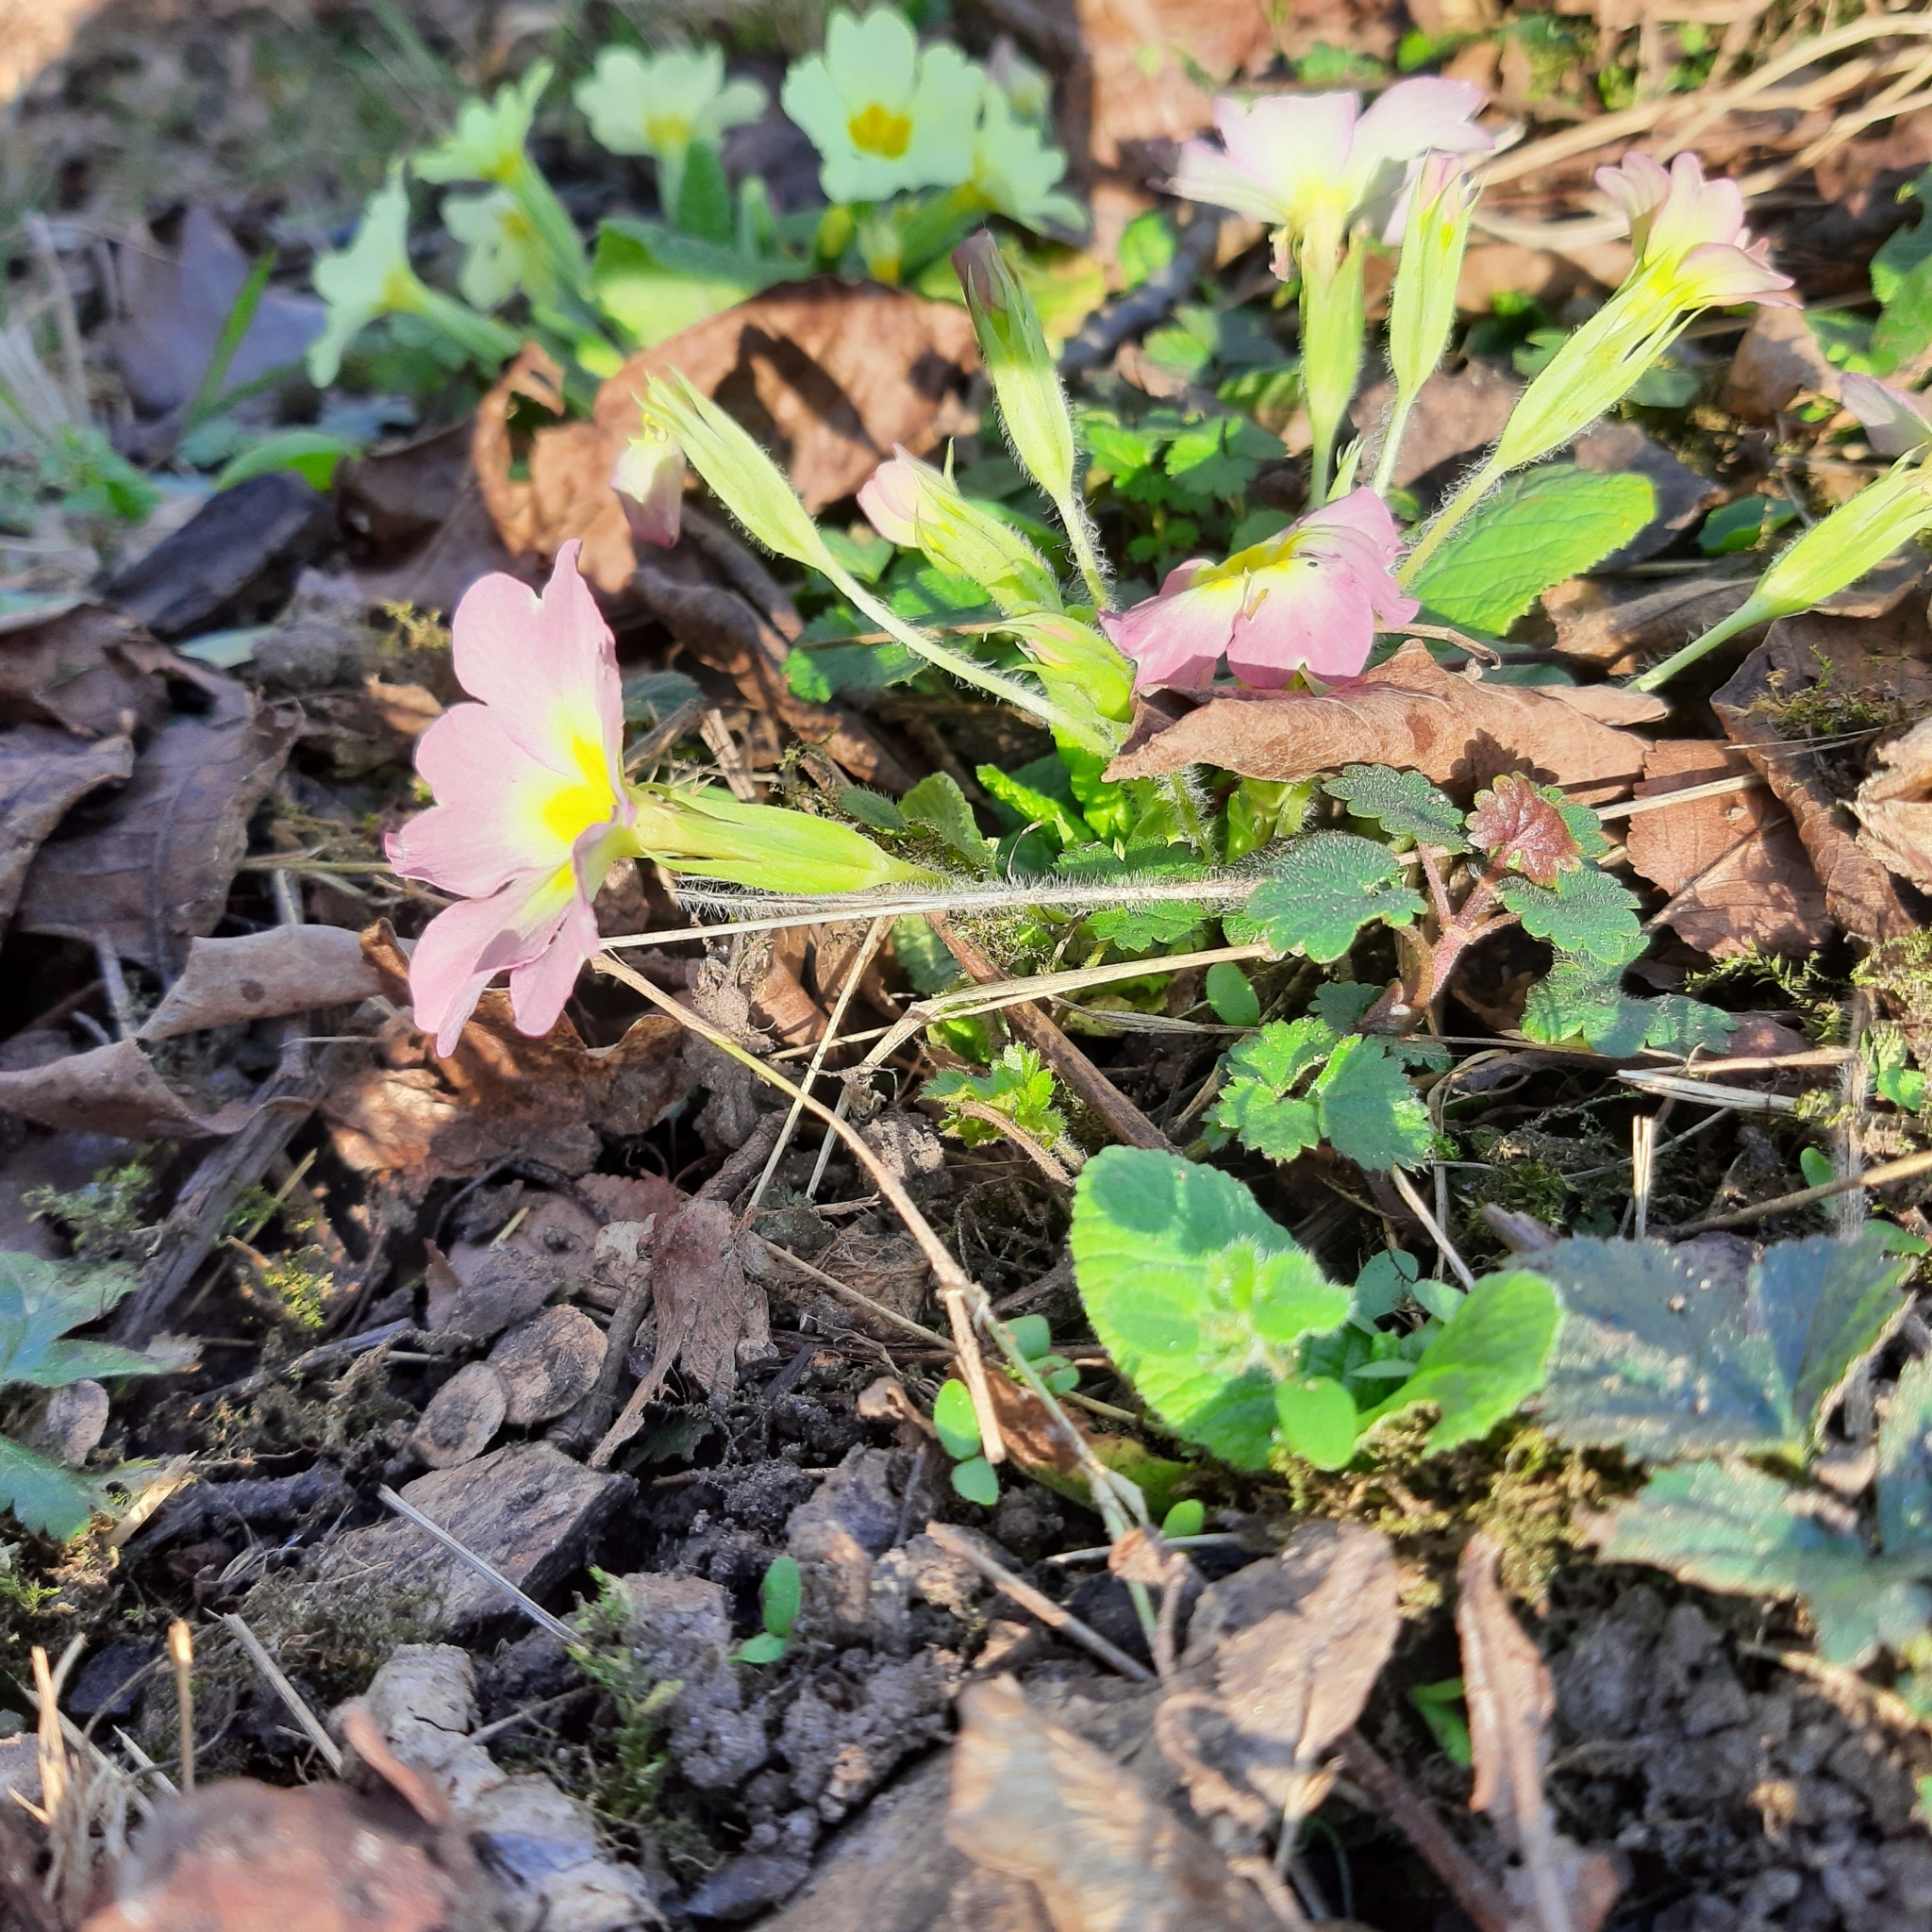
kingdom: Plantae
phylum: Tracheophyta
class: Magnoliopsida
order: Ericales
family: Primulaceae
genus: Primula
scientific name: Primula vulgaris
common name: Primrose
